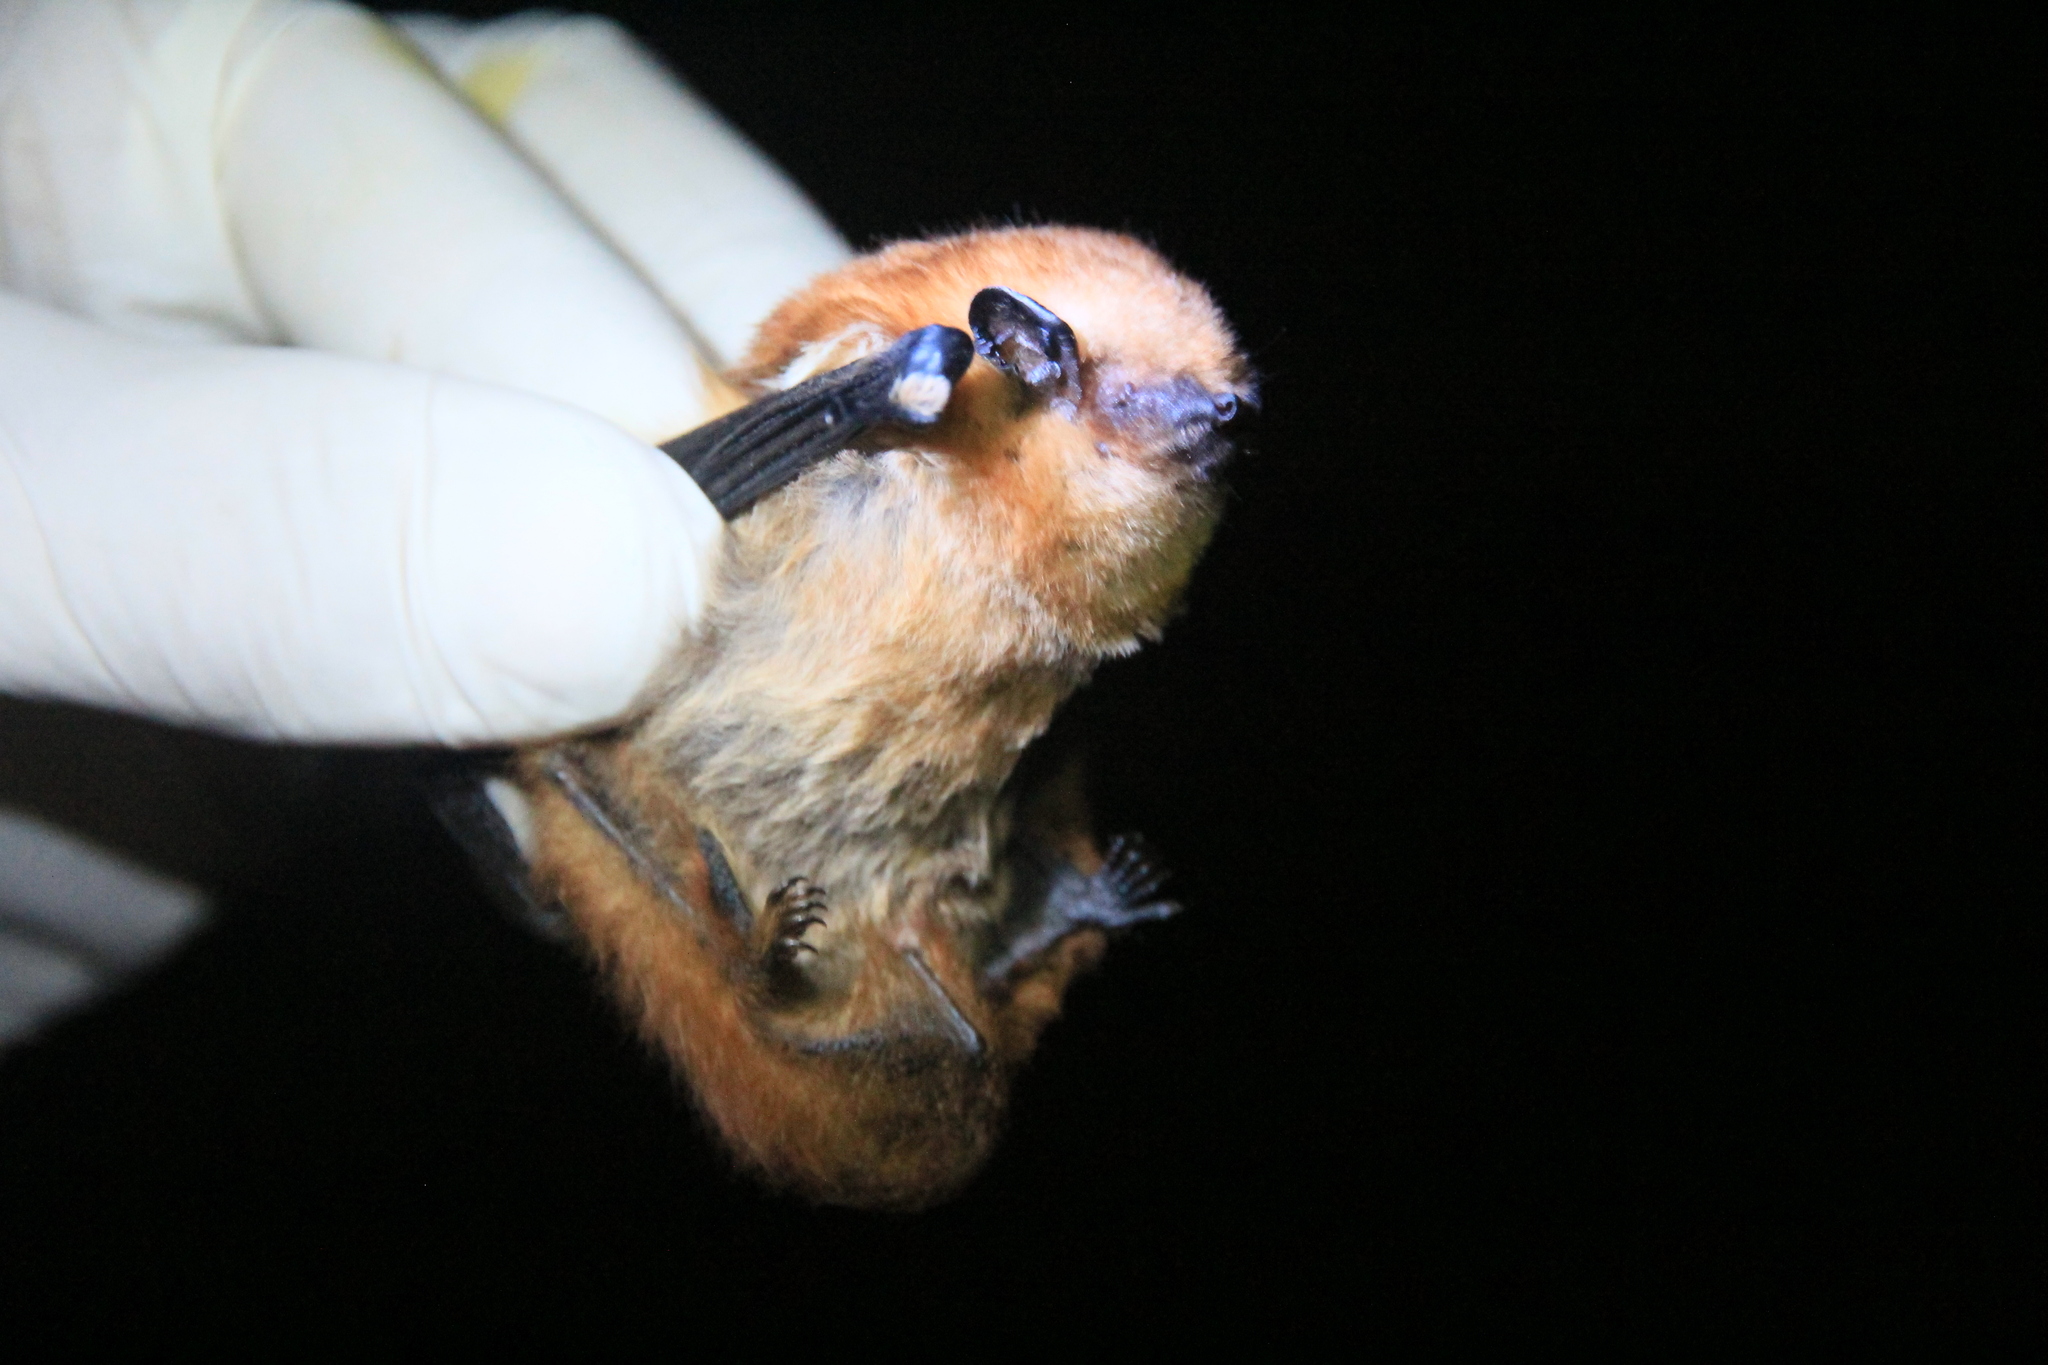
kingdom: Animalia
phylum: Chordata
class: Mammalia
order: Chiroptera
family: Vespertilionidae
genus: Lasiurus
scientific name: Lasiurus varius
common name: Cinnamon red bat
